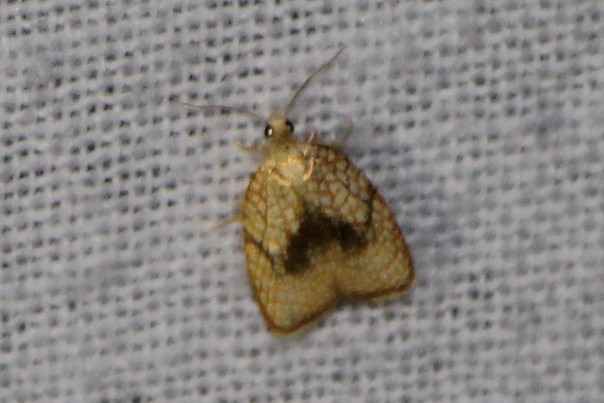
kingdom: Animalia
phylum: Arthropoda
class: Insecta
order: Lepidoptera
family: Tortricidae
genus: Acleris
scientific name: Acleris forsskaleana
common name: Maple button
